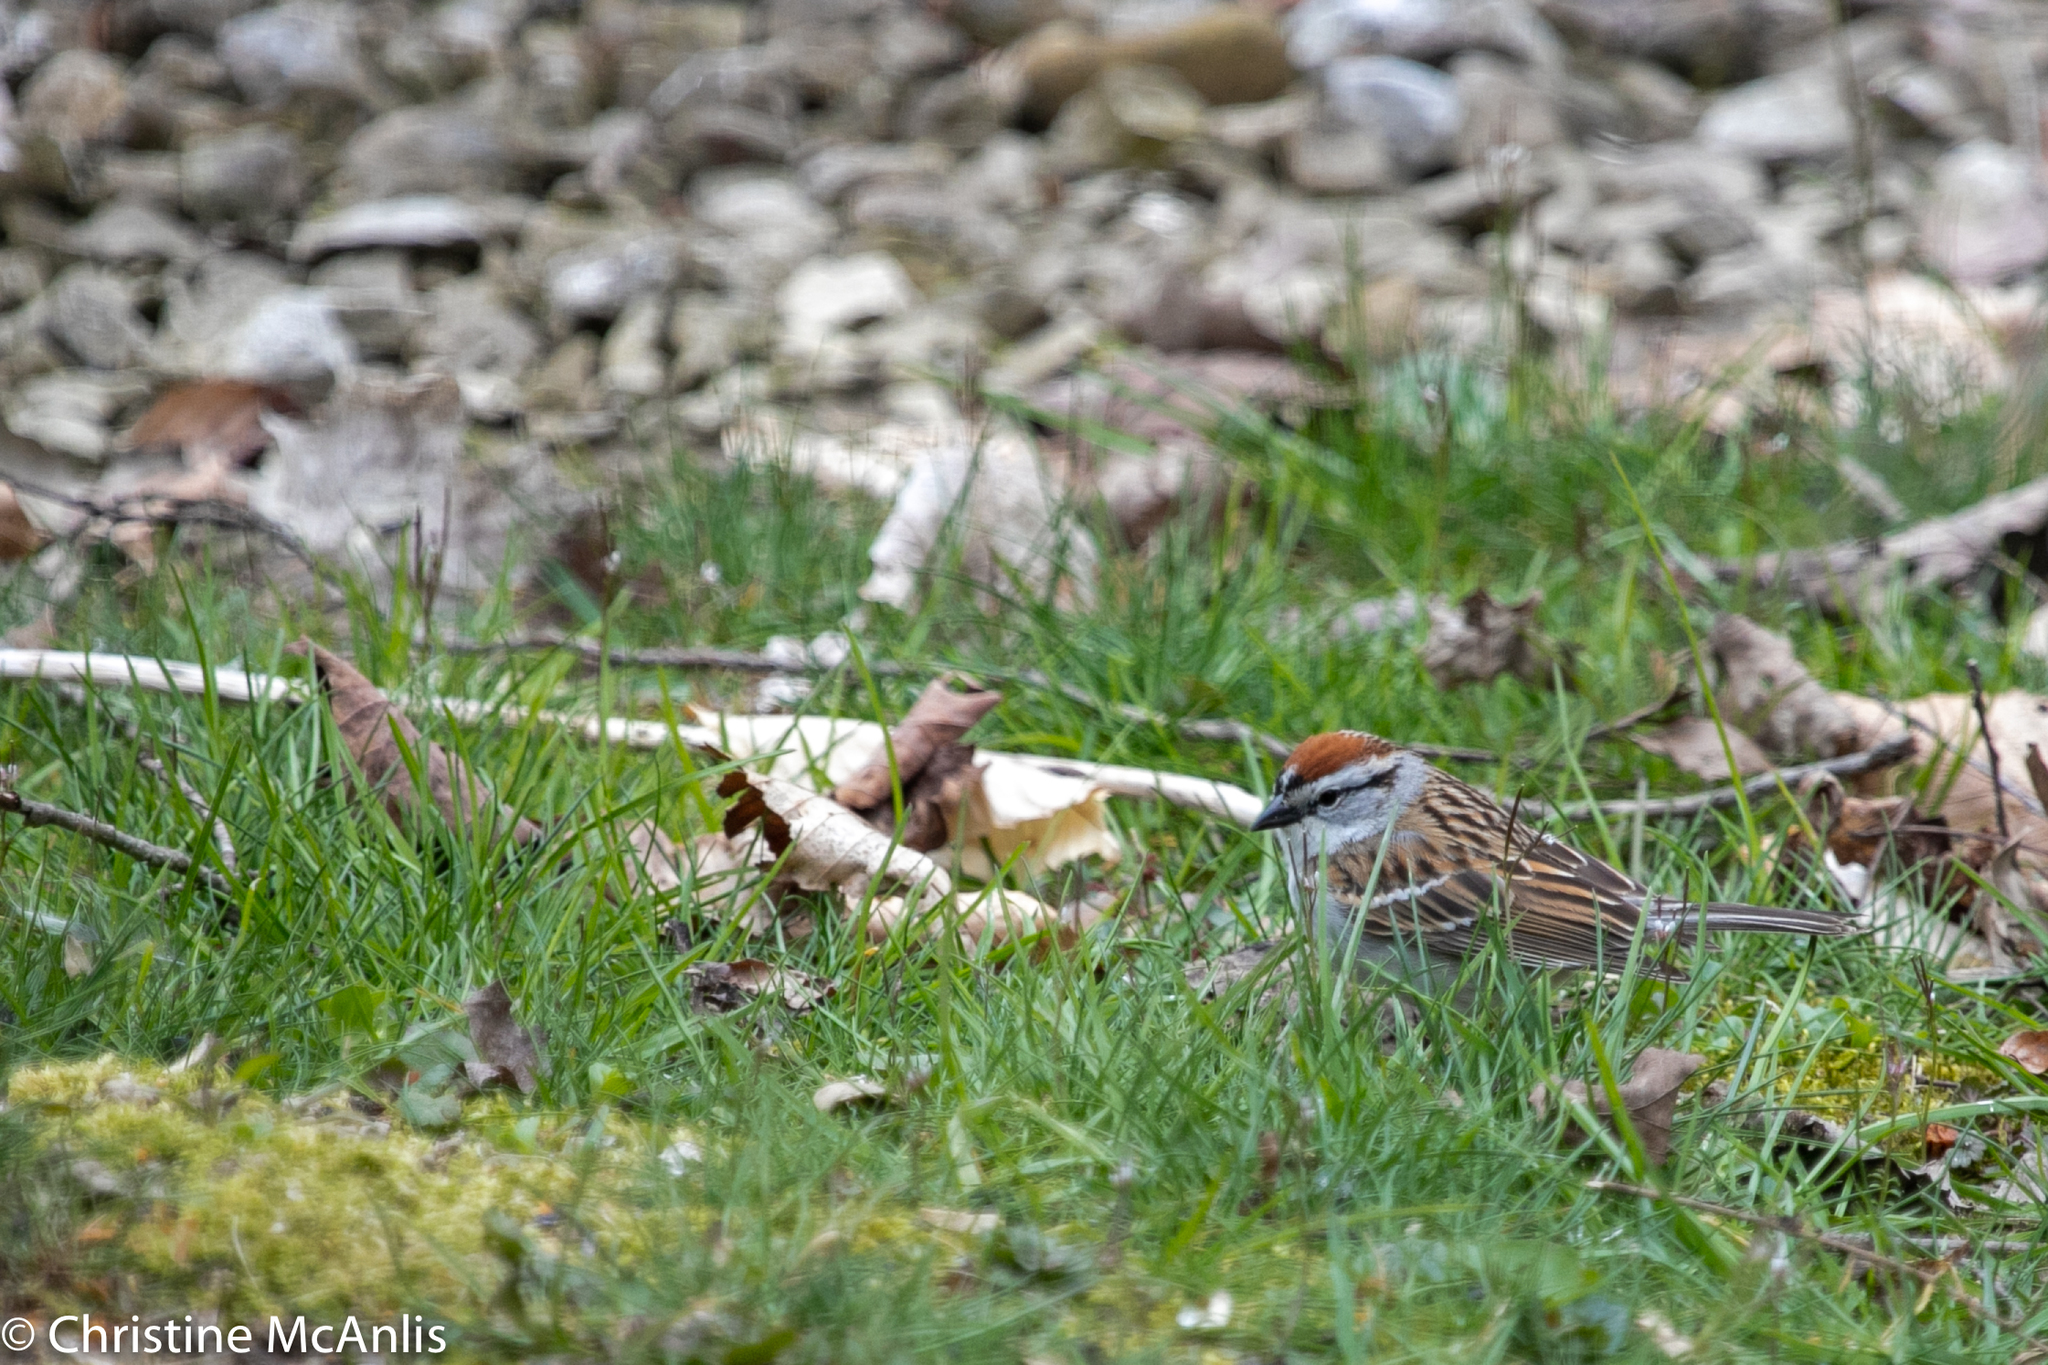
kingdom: Animalia
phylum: Chordata
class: Aves
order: Passeriformes
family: Passerellidae
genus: Spizella
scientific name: Spizella passerina
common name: Chipping sparrow
